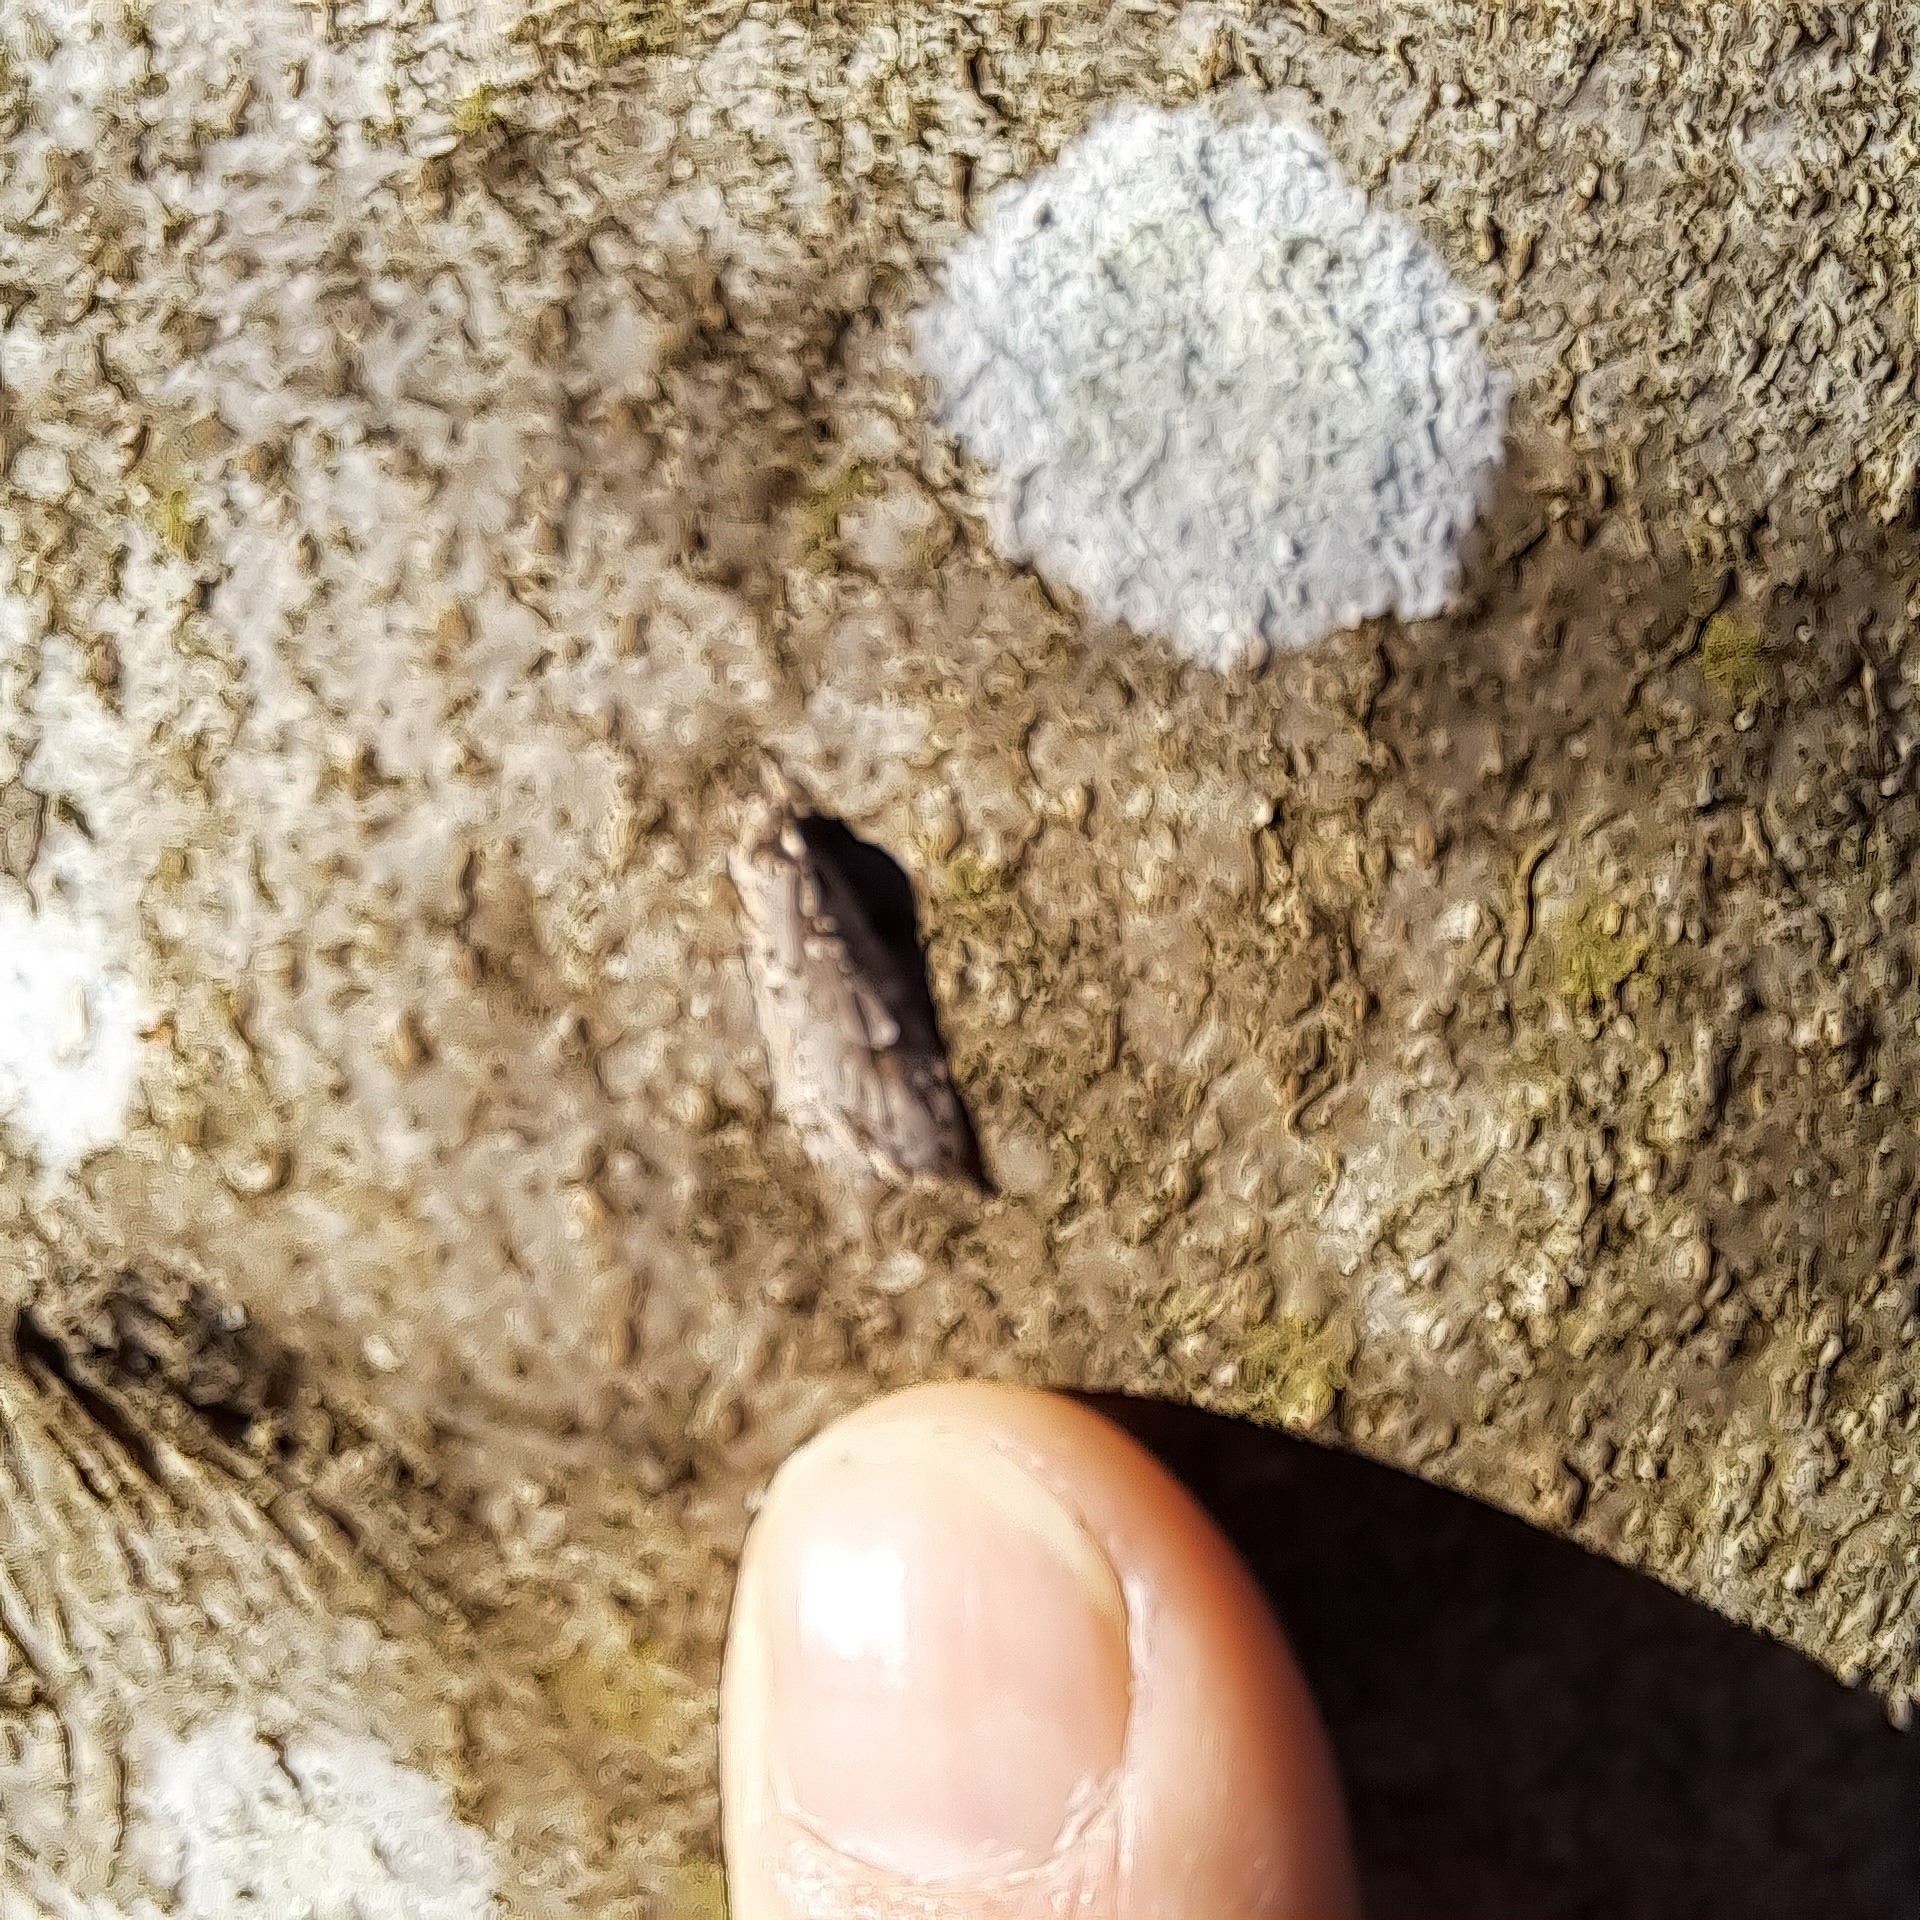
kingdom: Animalia
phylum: Arthropoda
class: Insecta
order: Lepidoptera
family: Lypusidae
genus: Diurnea
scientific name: Diurnea fagella
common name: March tubic
